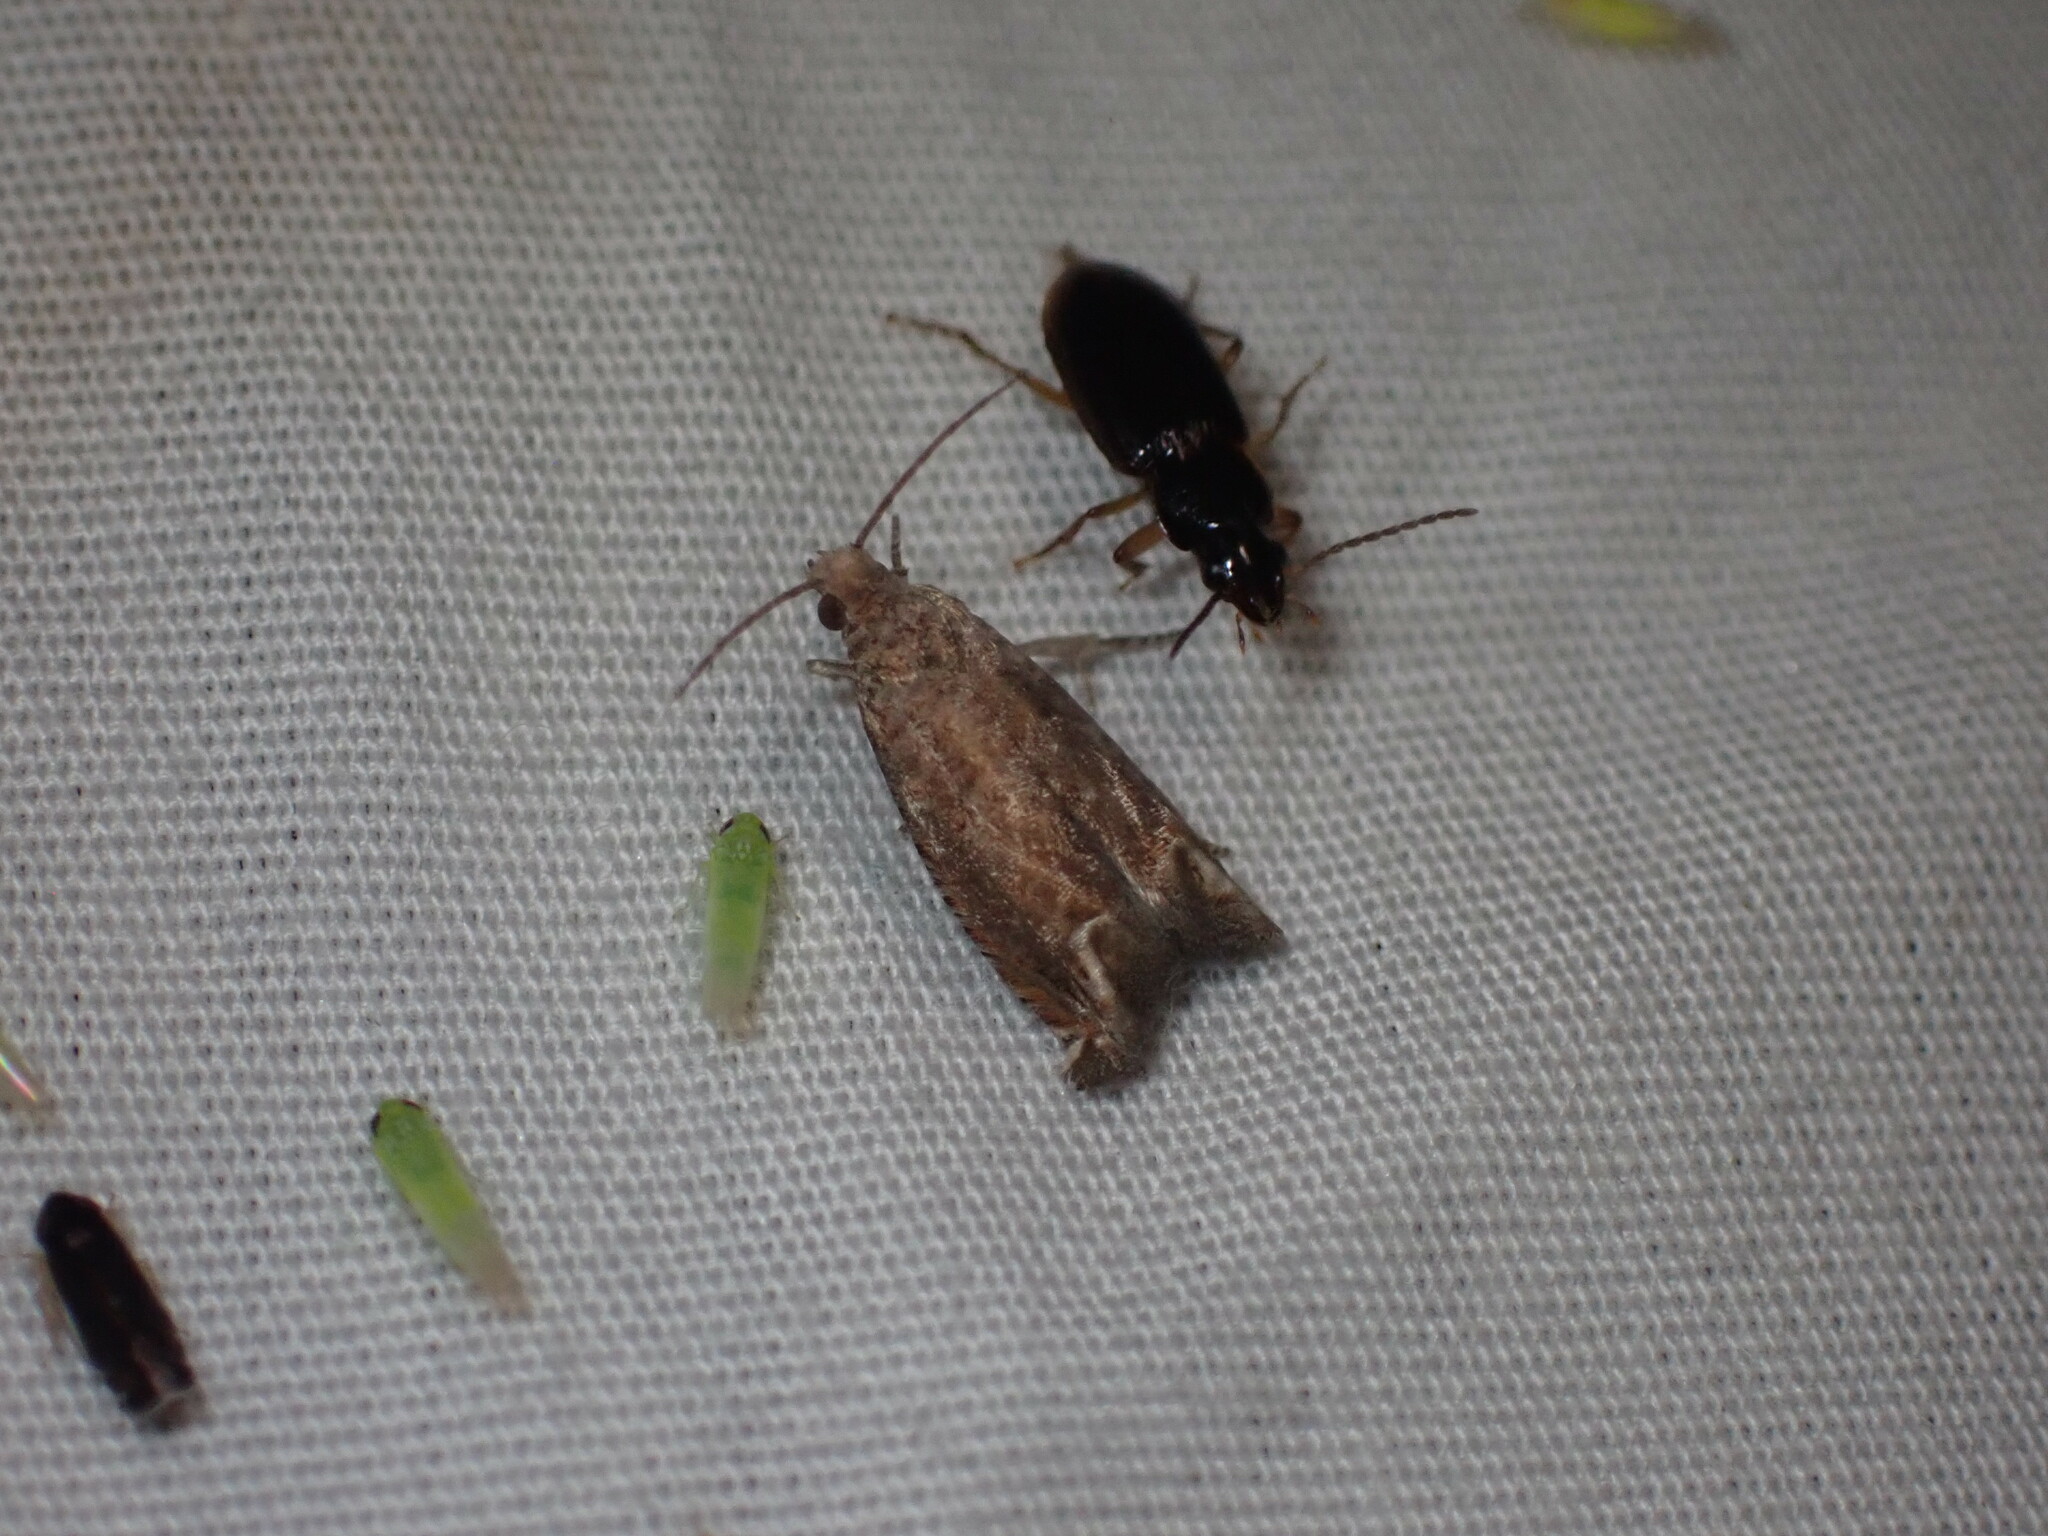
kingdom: Animalia
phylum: Arthropoda
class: Insecta
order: Lepidoptera
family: Tortricidae
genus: Epiblema
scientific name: Epiblema mandana
